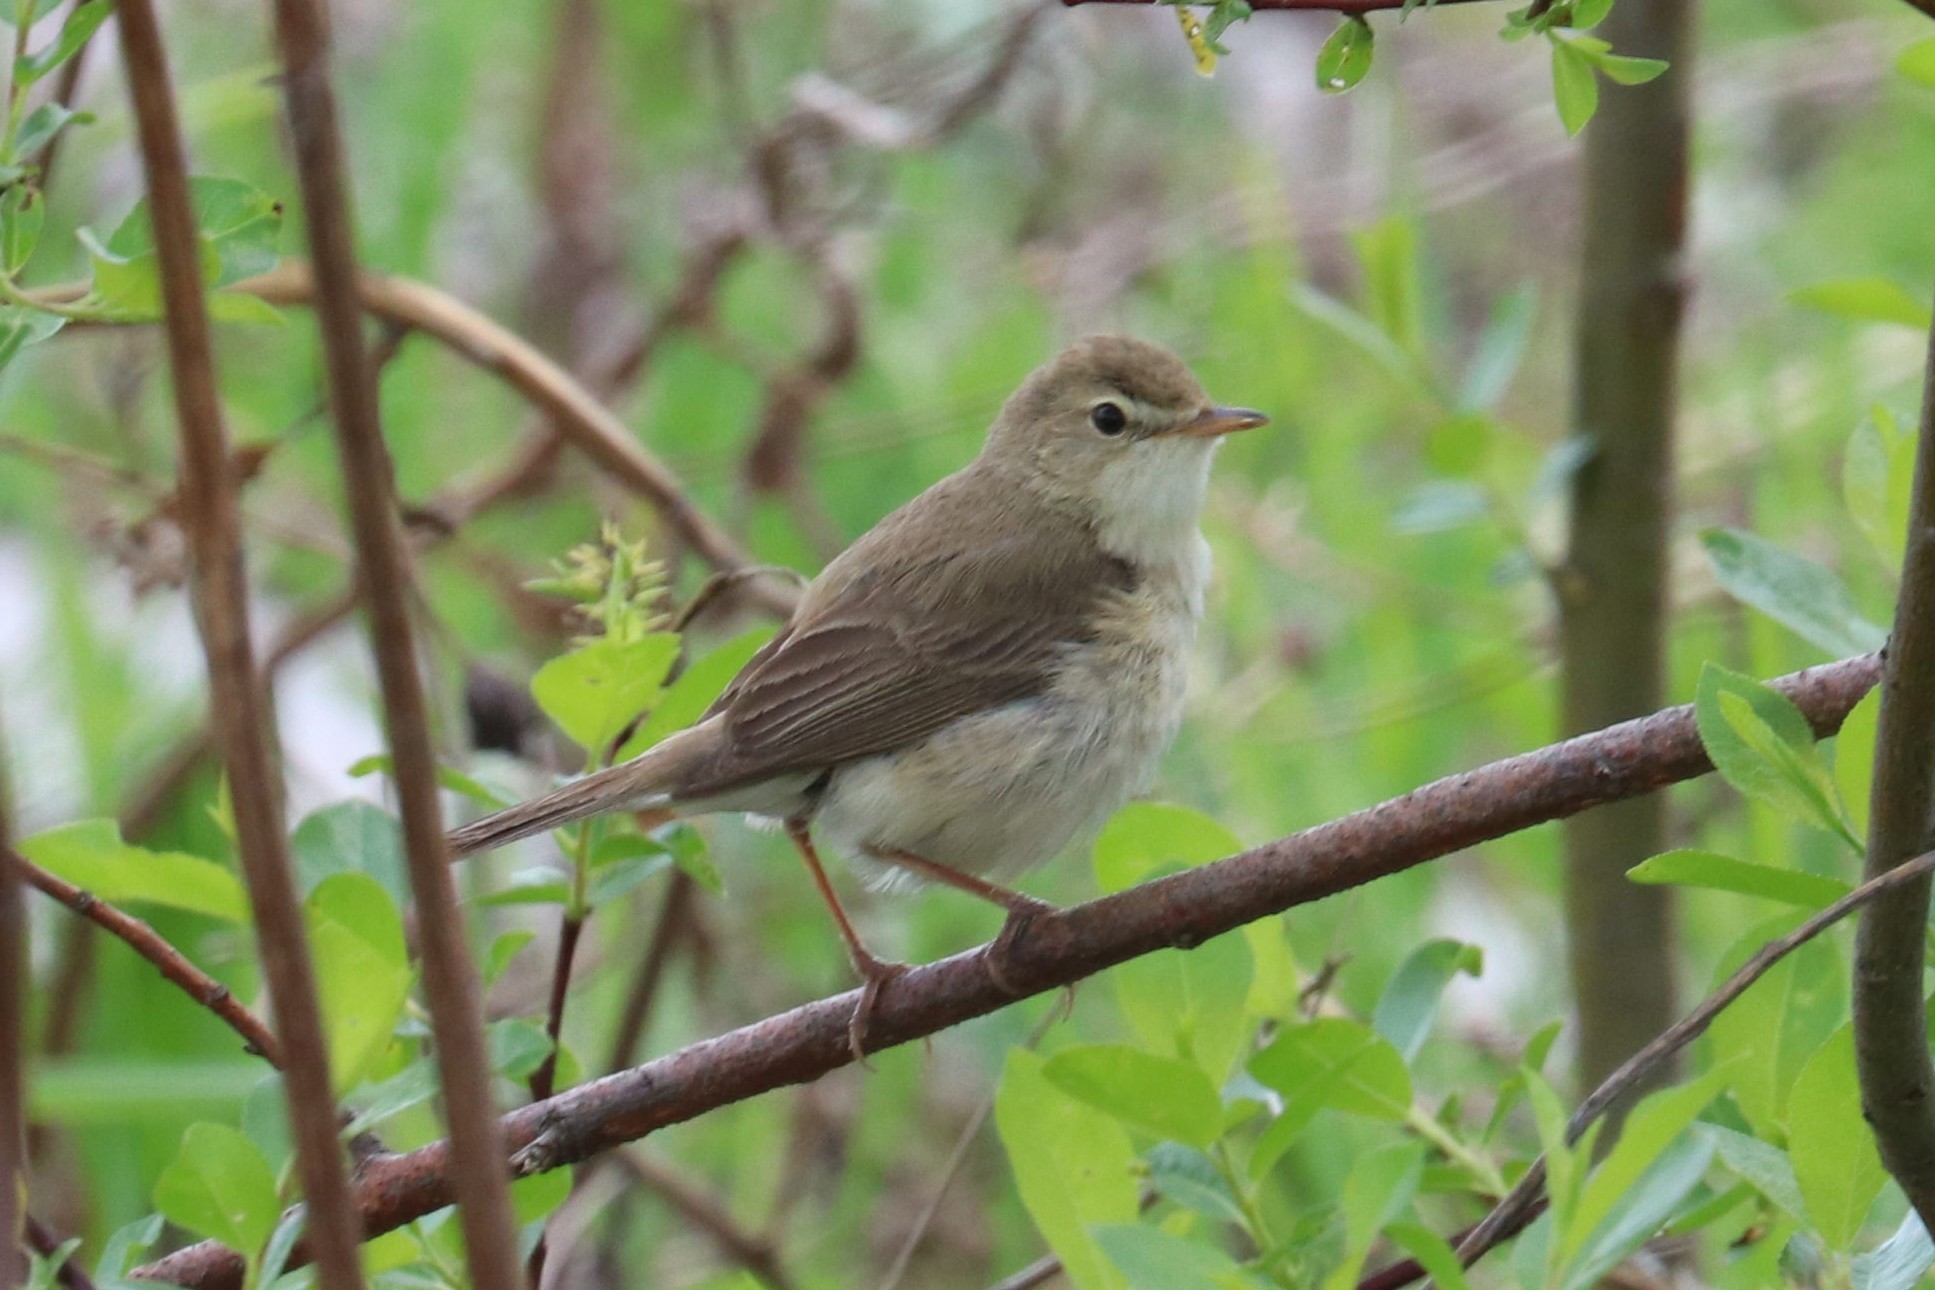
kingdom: Animalia
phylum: Chordata
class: Aves
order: Passeriformes
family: Acrocephalidae
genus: Iduna
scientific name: Iduna caligata
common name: Booted warbler
